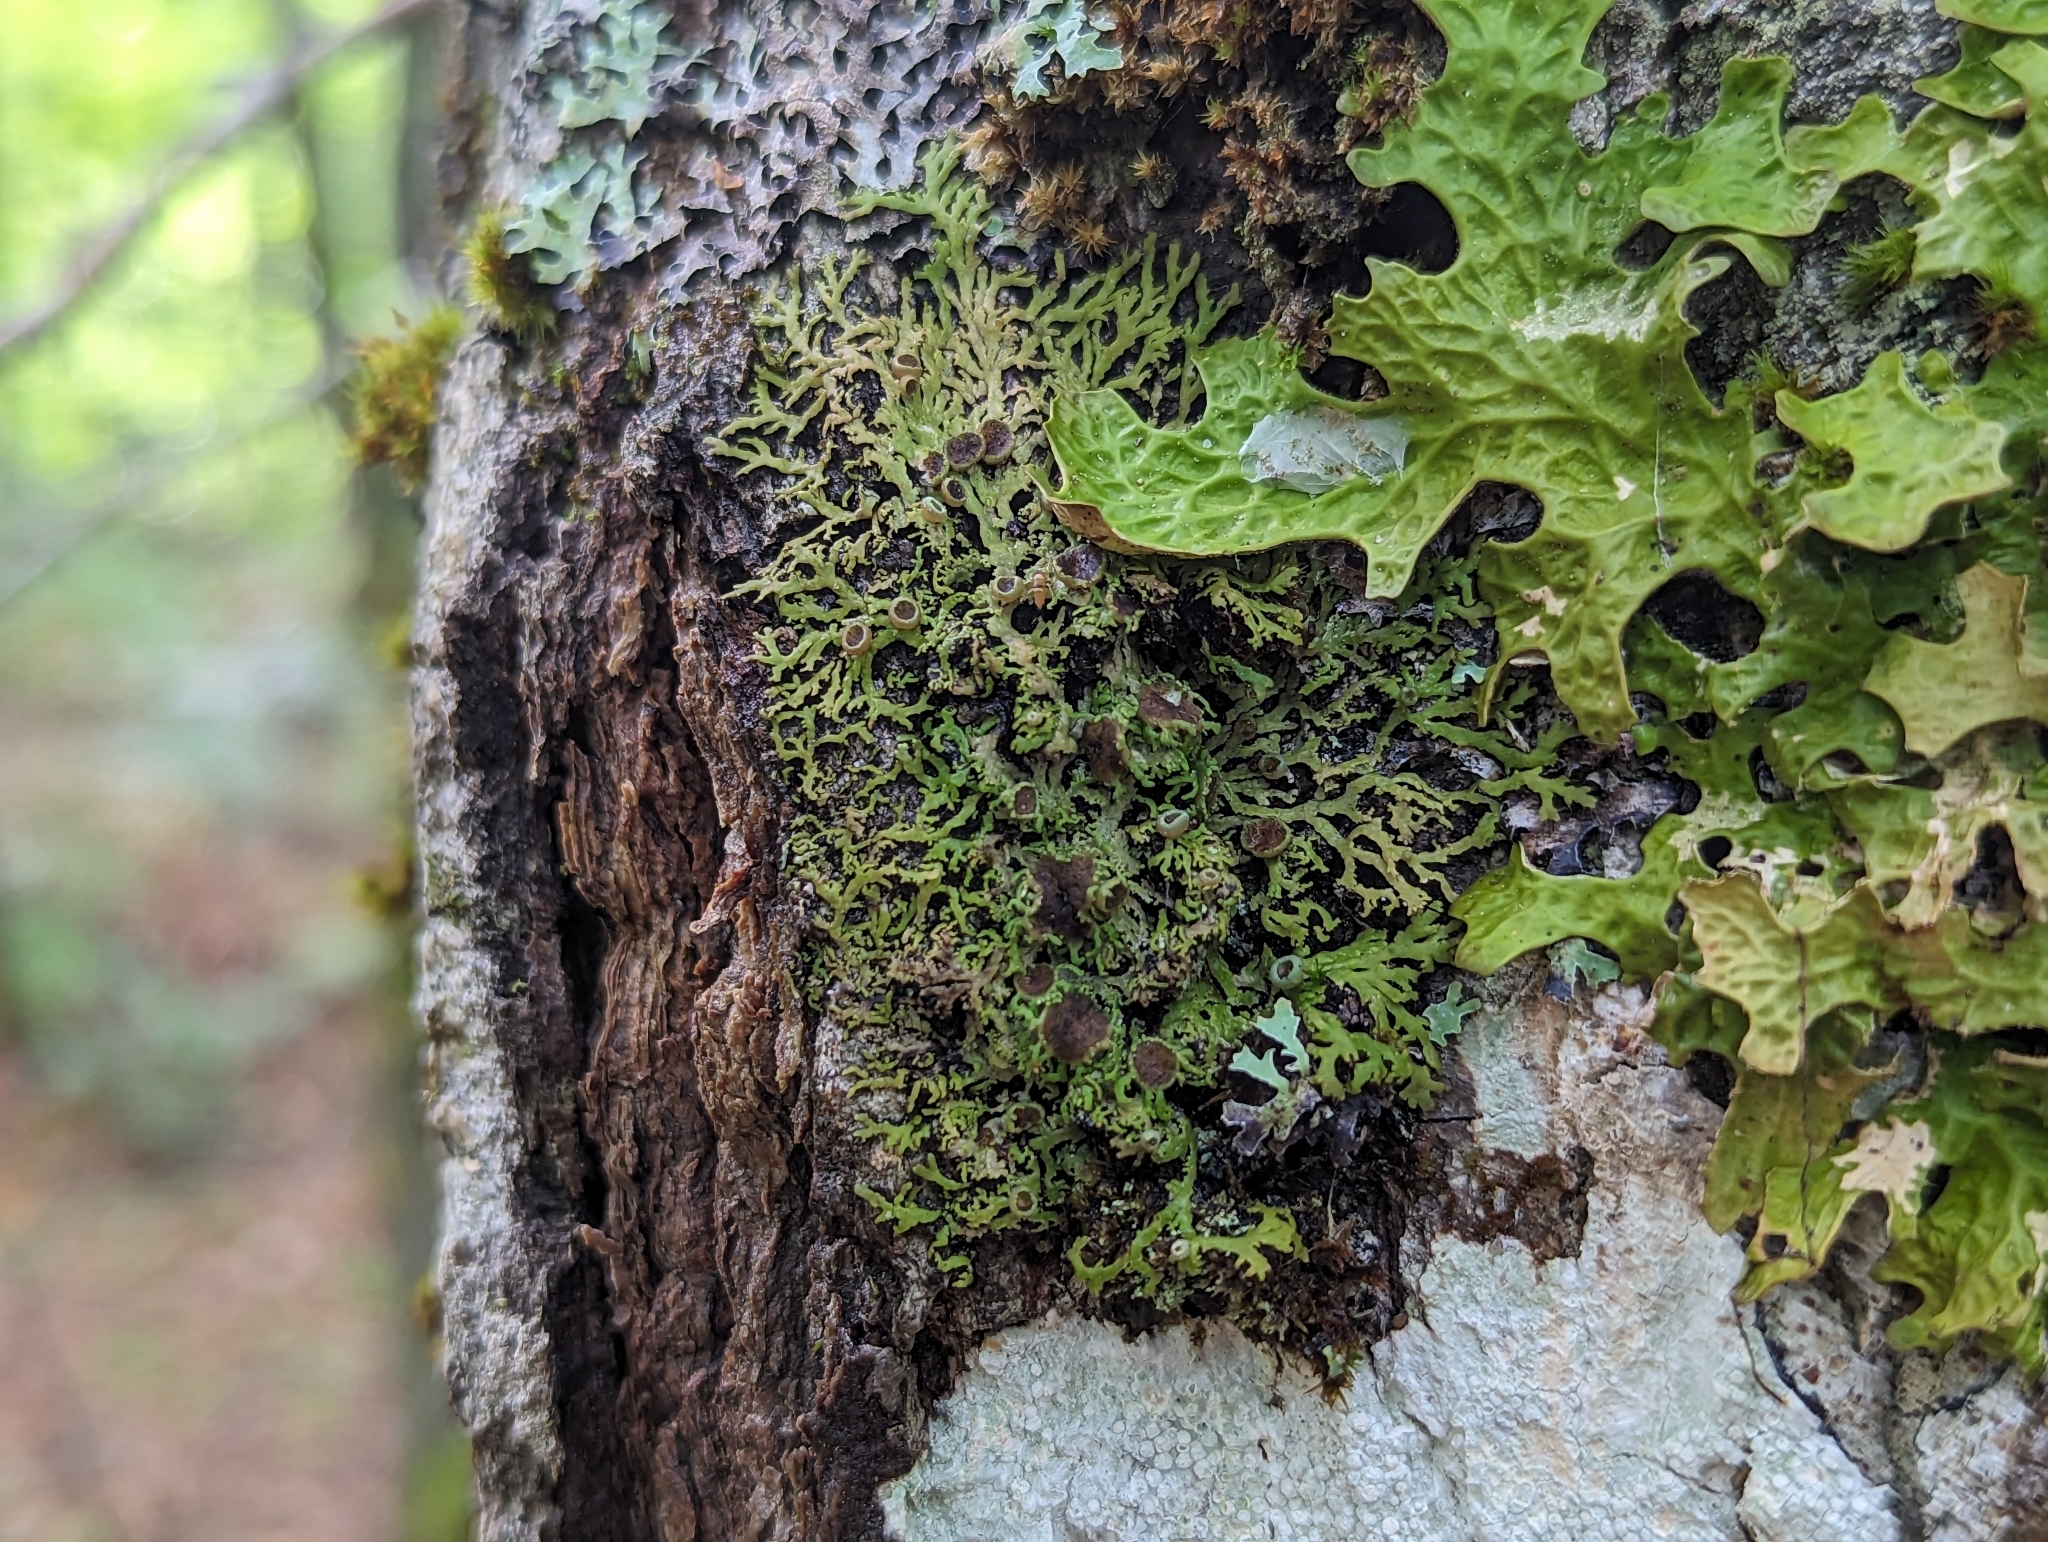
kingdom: Fungi
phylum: Ascomycota
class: Lecanoromycetes
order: Caliciales
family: Physciaceae
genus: Kurokawia
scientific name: Kurokawia palmulata
